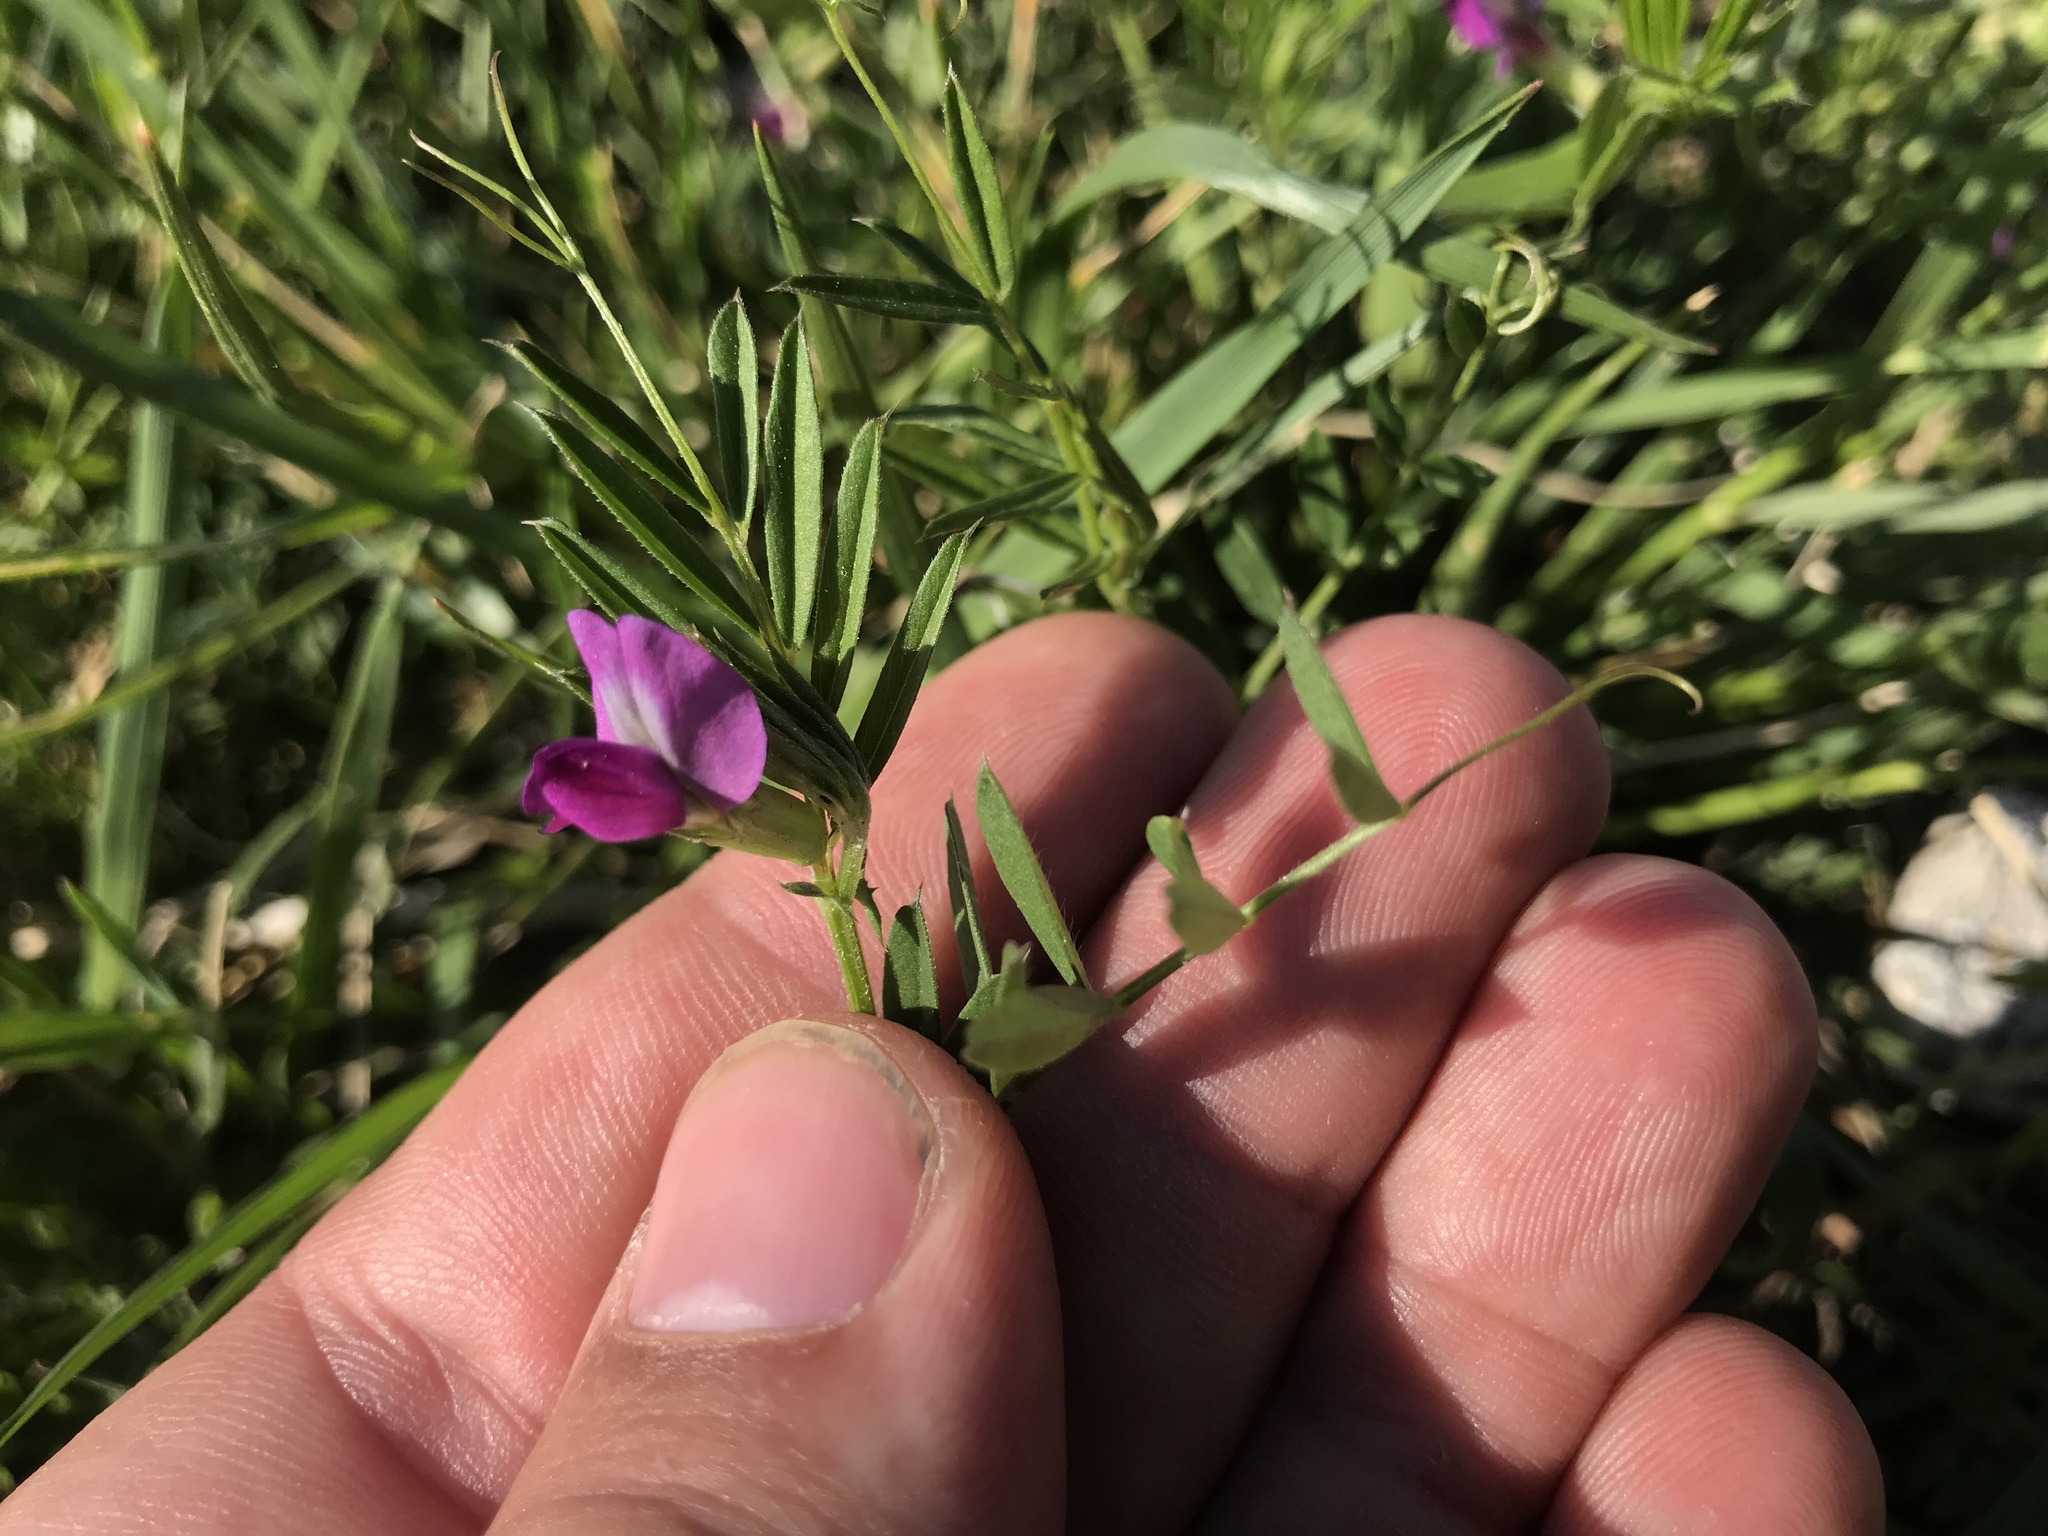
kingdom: Plantae
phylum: Tracheophyta
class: Magnoliopsida
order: Fabales
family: Fabaceae
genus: Vicia
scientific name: Vicia sativa
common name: Garden vetch
